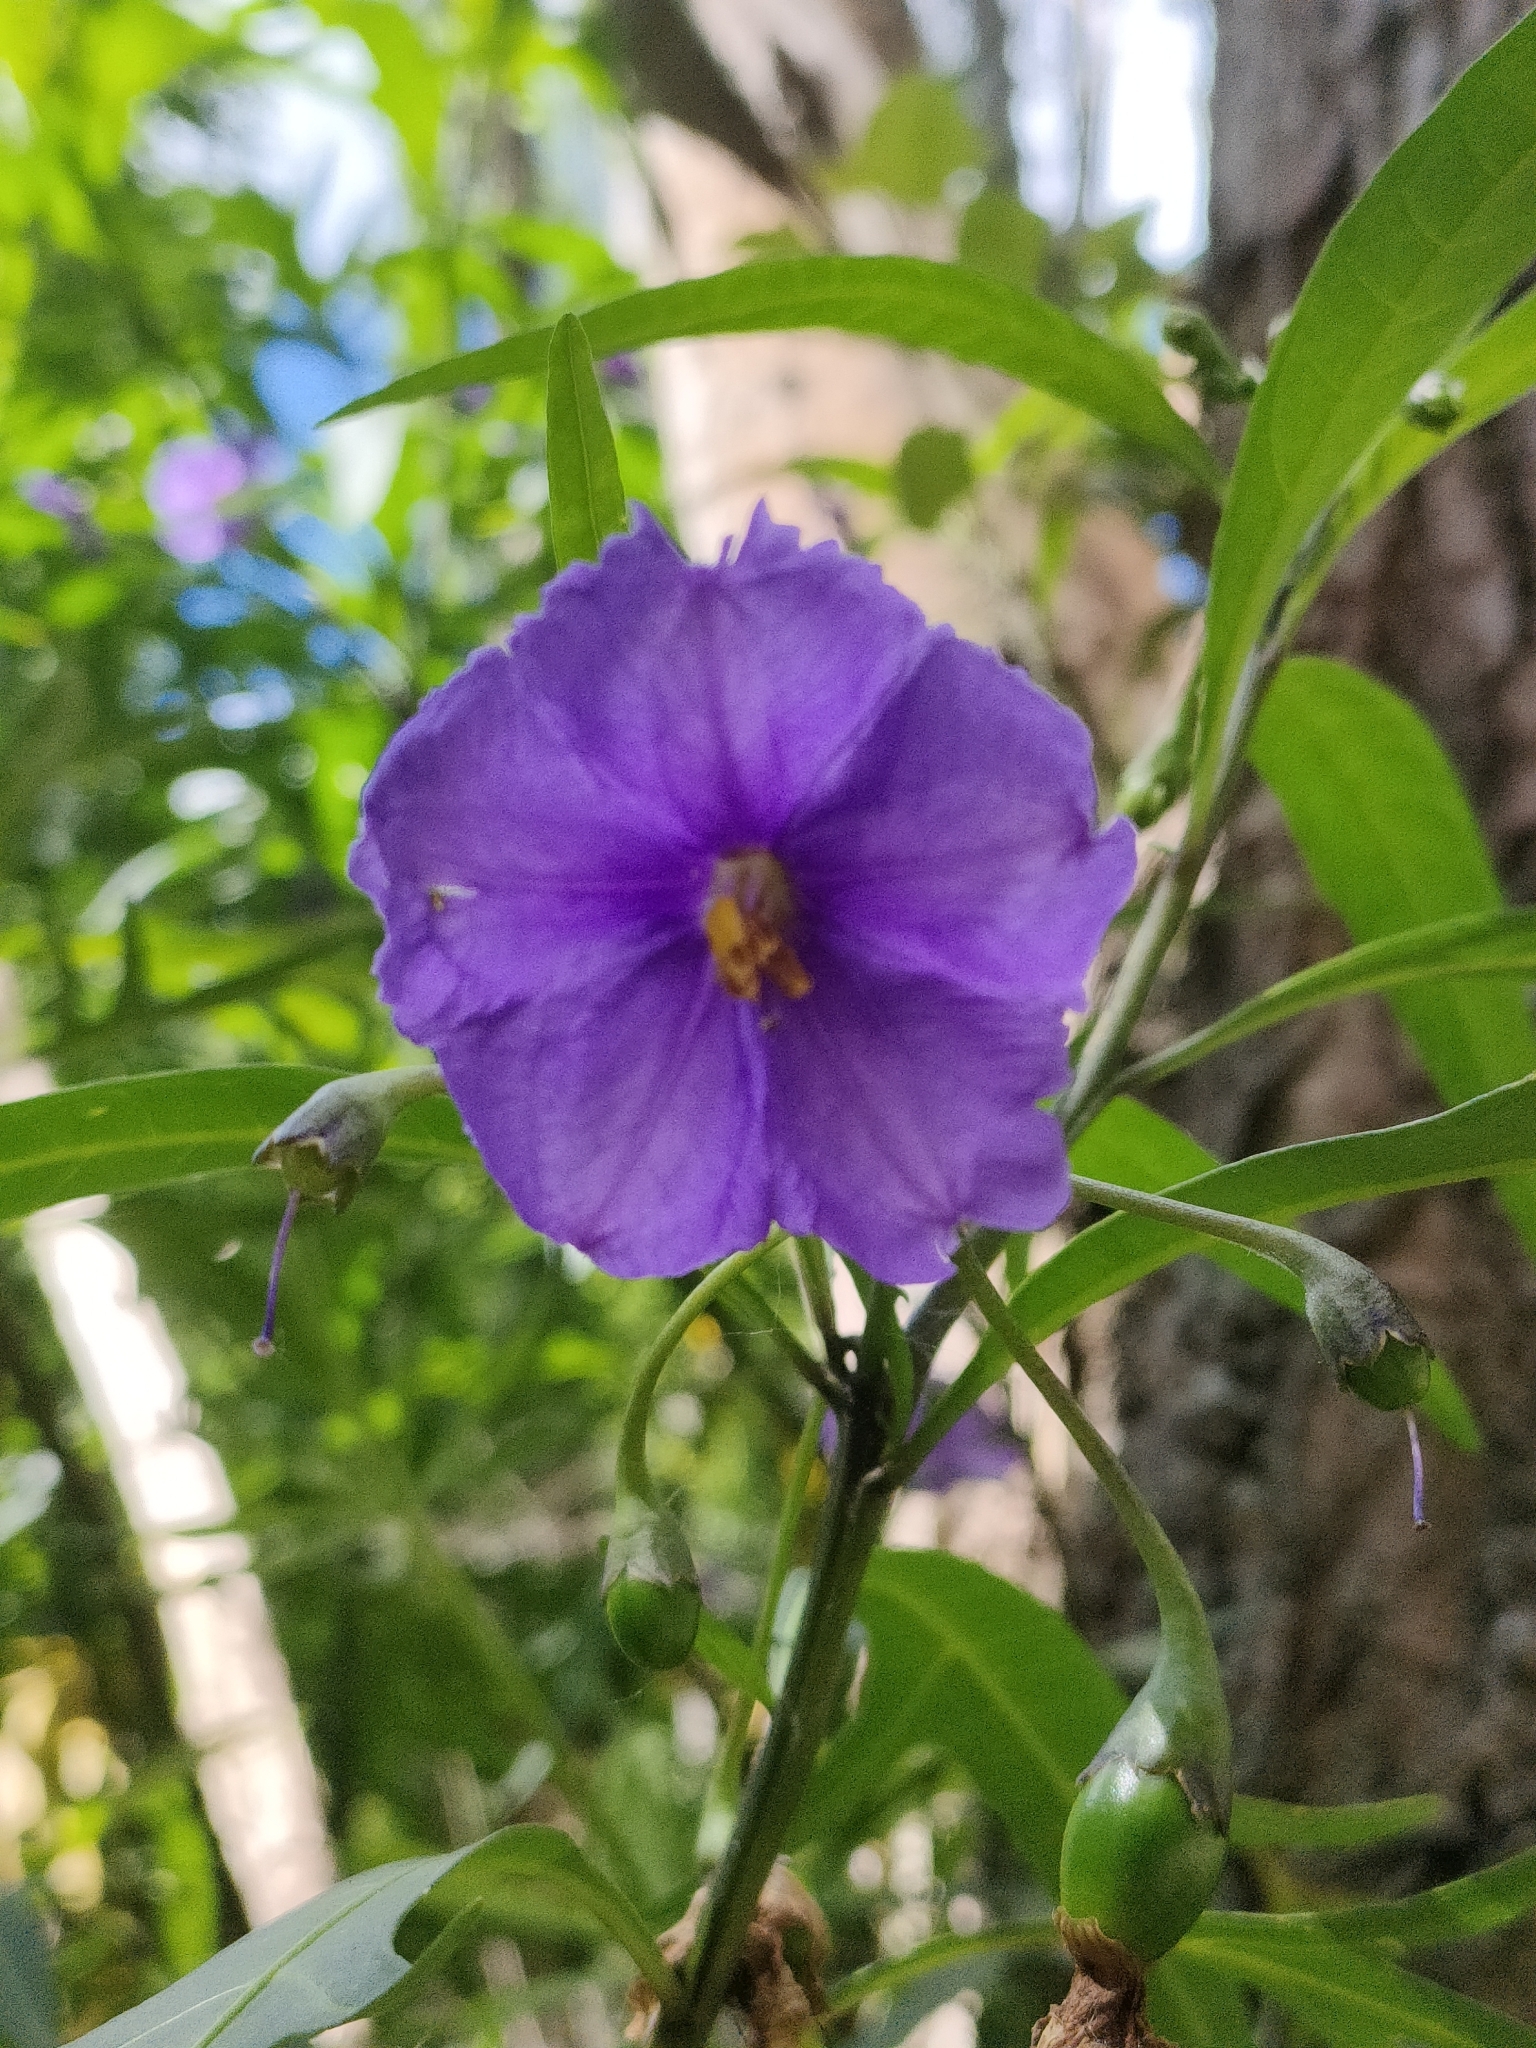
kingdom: Plantae
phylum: Tracheophyta
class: Magnoliopsida
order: Solanales
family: Solanaceae
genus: Solanum
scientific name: Solanum laciniatum
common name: Kangaroo-apple
